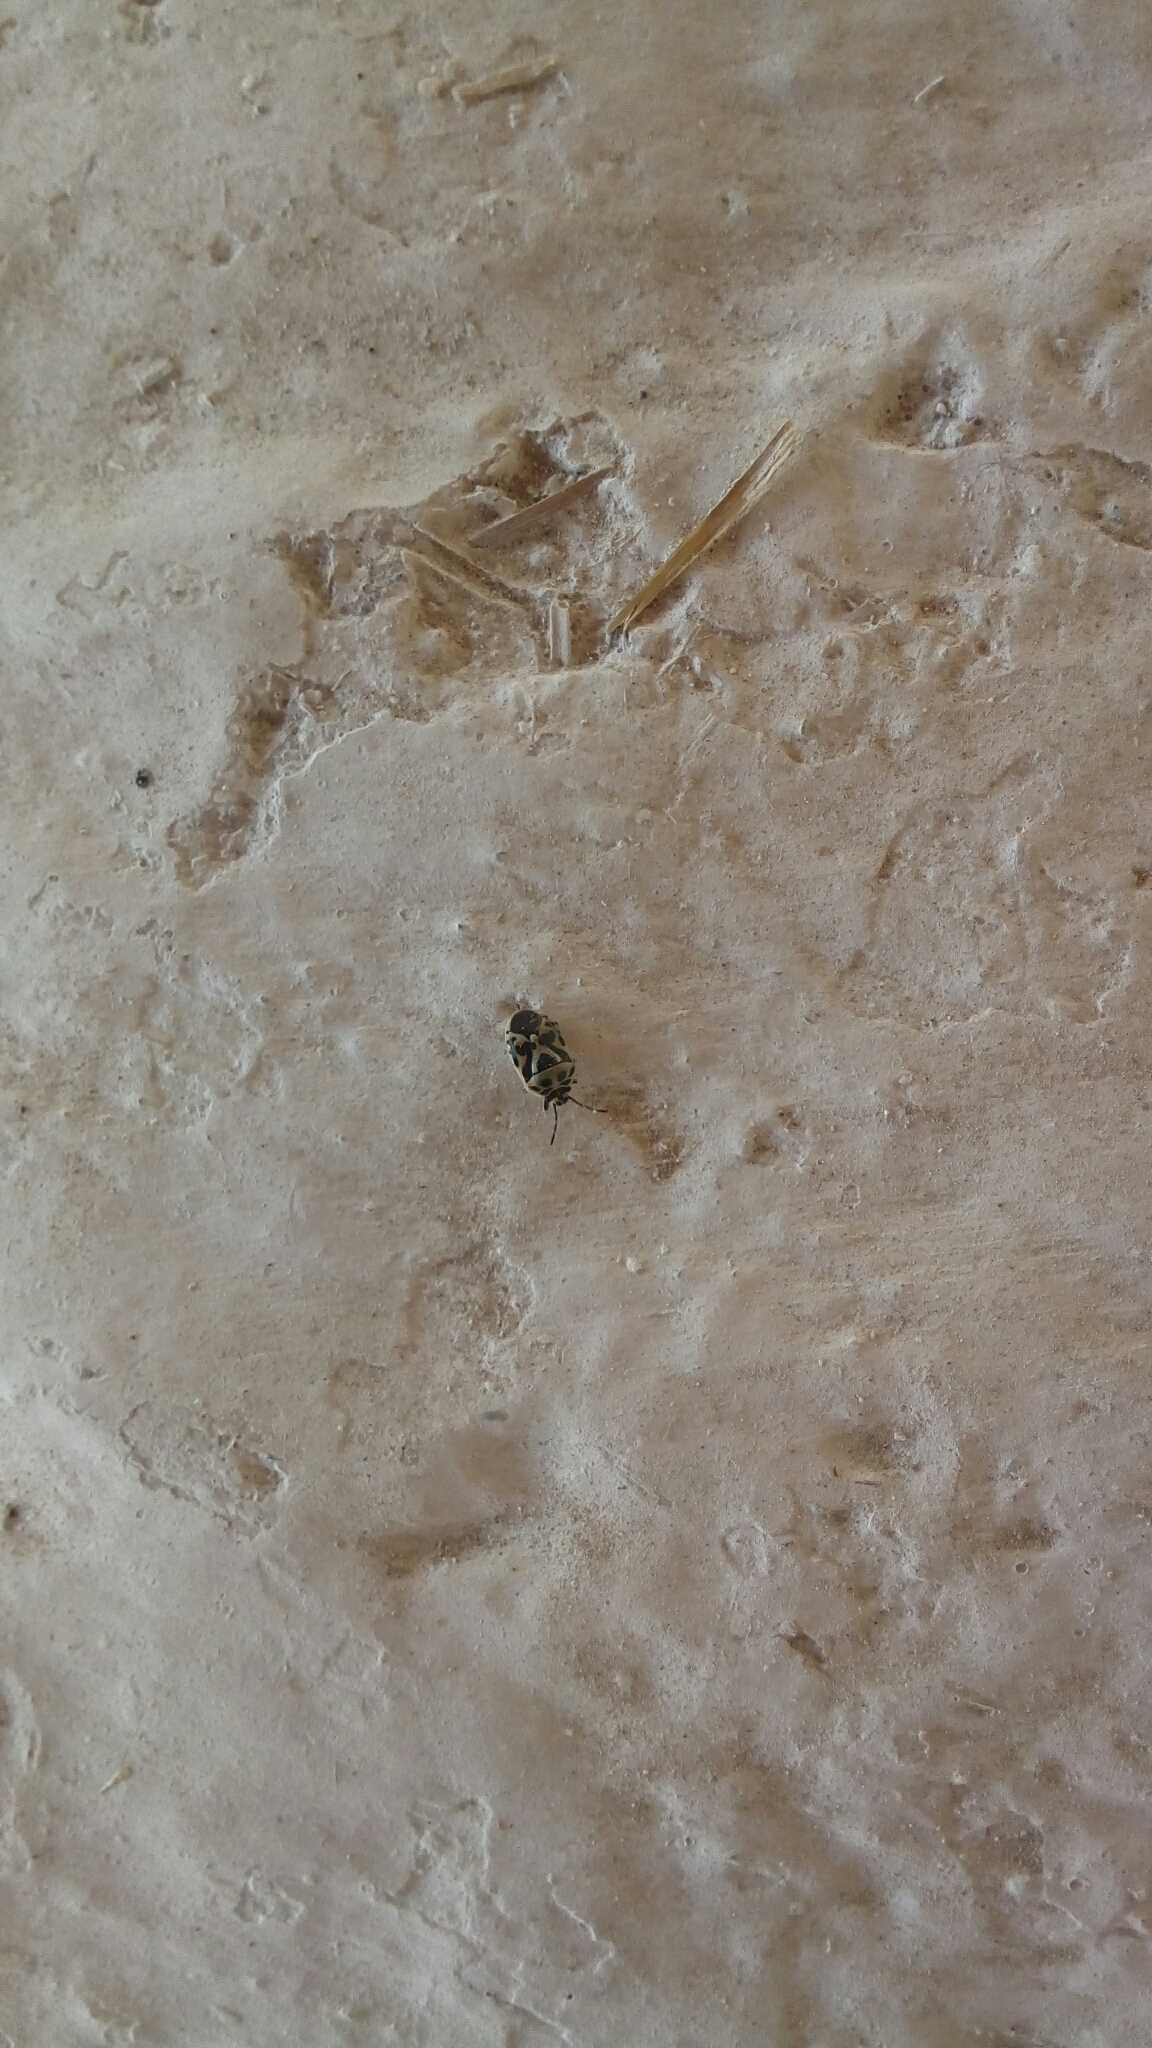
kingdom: Animalia
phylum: Arthropoda
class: Insecta
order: Hemiptera
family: Pentatomidae
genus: Eurydema
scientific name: Eurydema ornata
